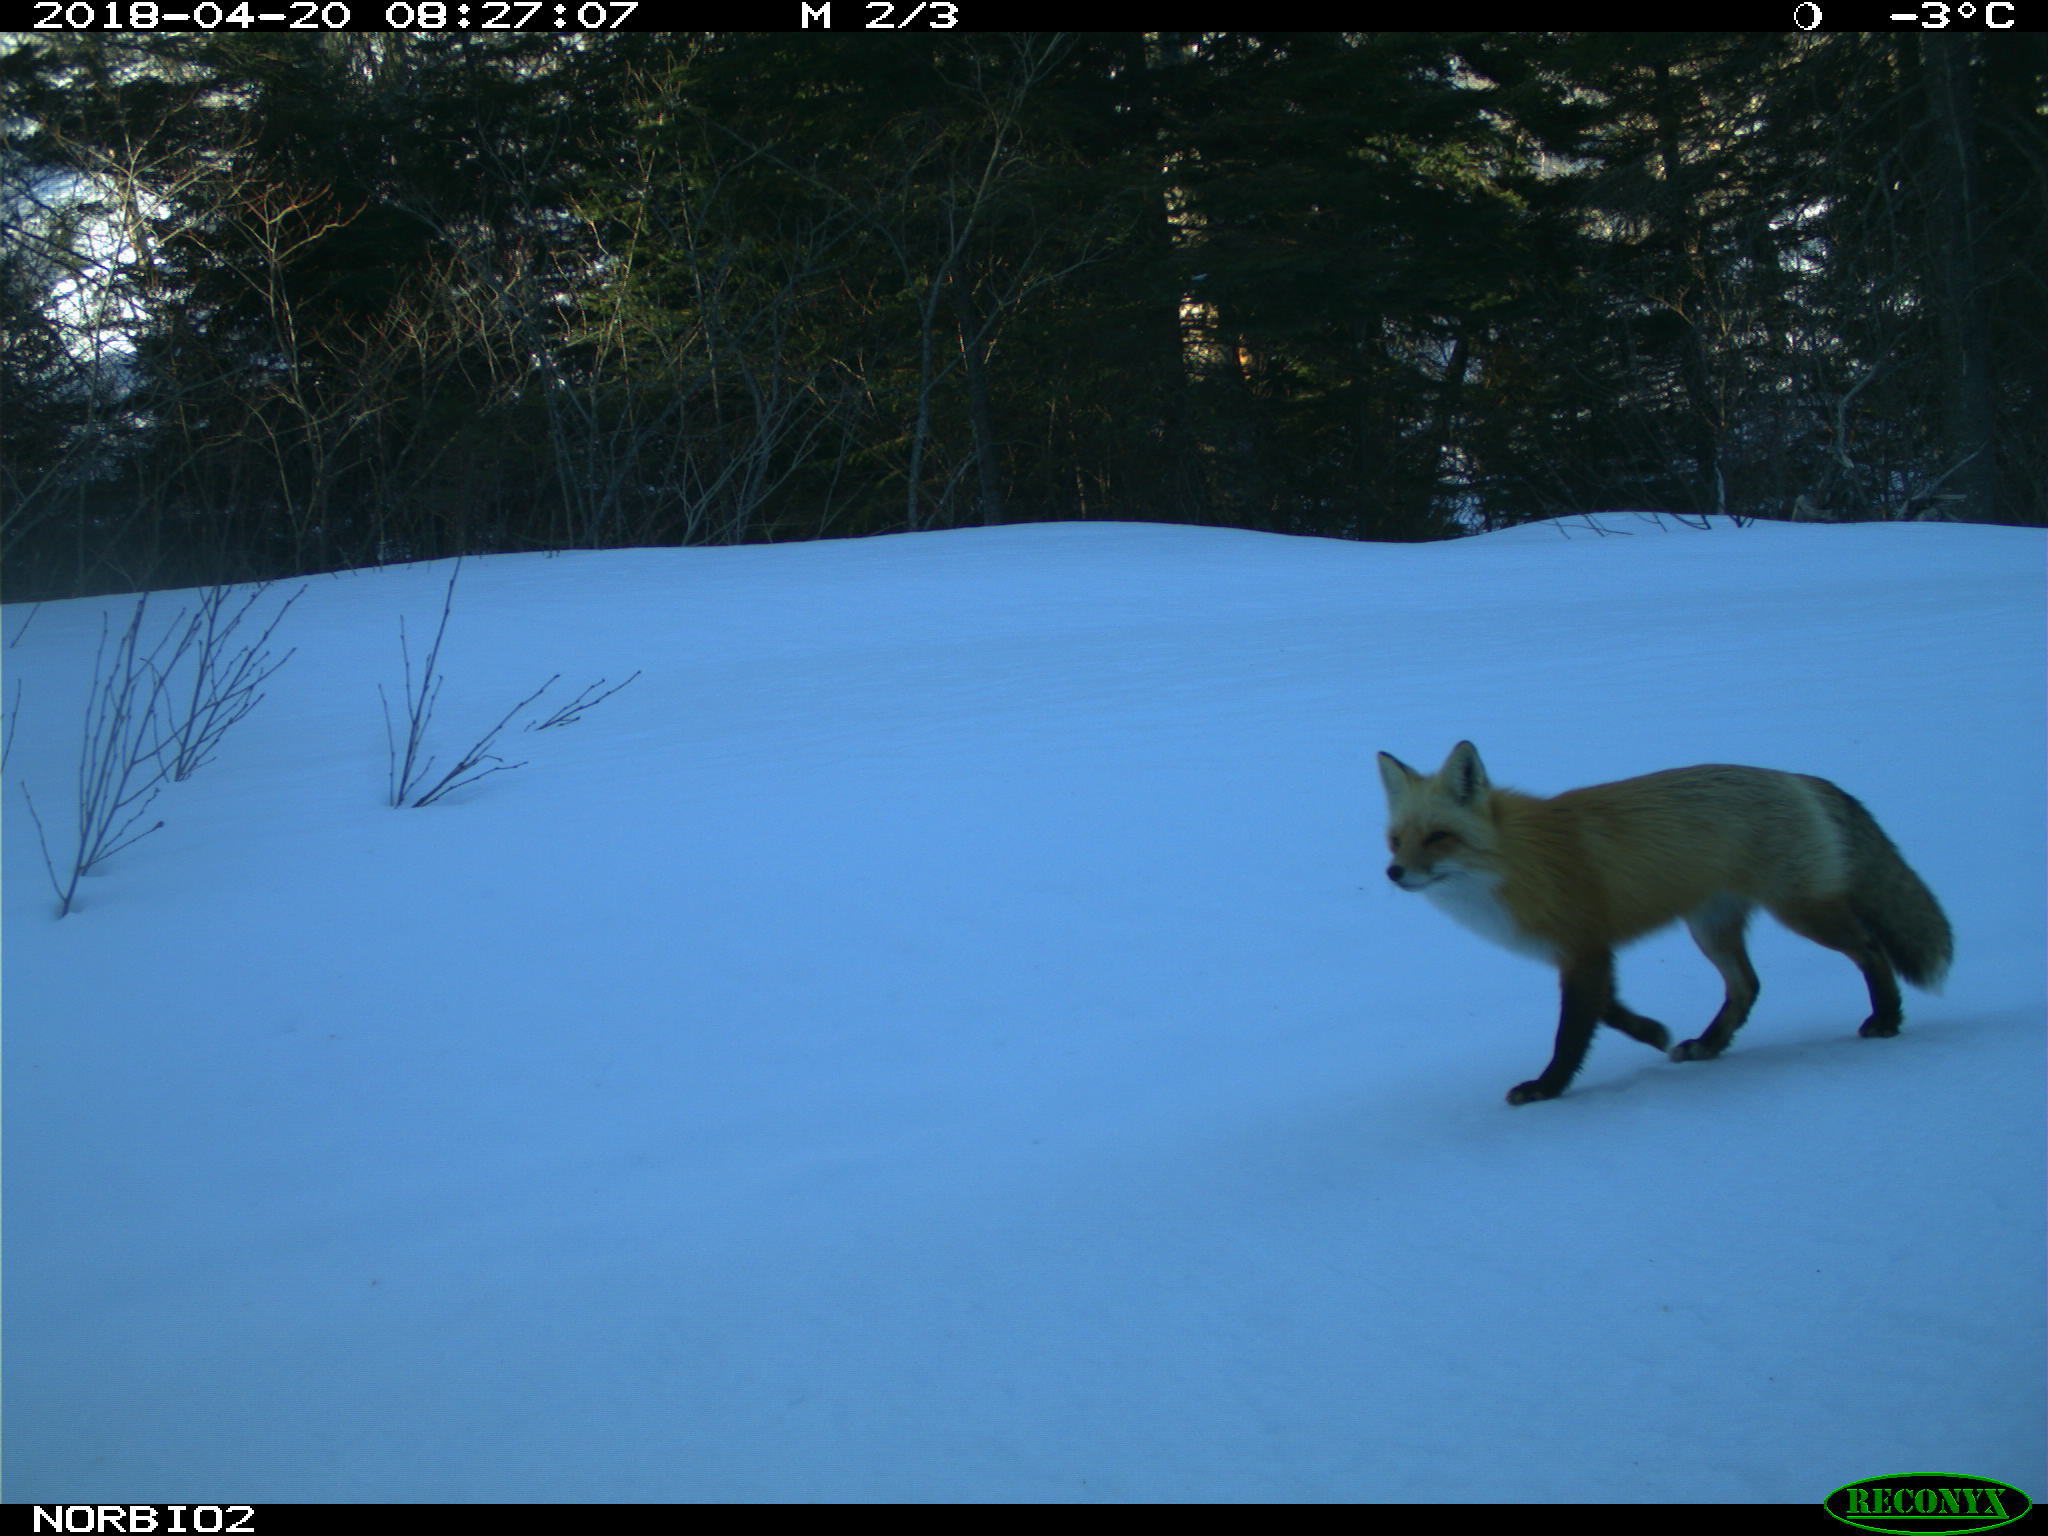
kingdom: Animalia
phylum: Chordata
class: Mammalia
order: Carnivora
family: Canidae
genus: Vulpes
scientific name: Vulpes vulpes
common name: Red fox
